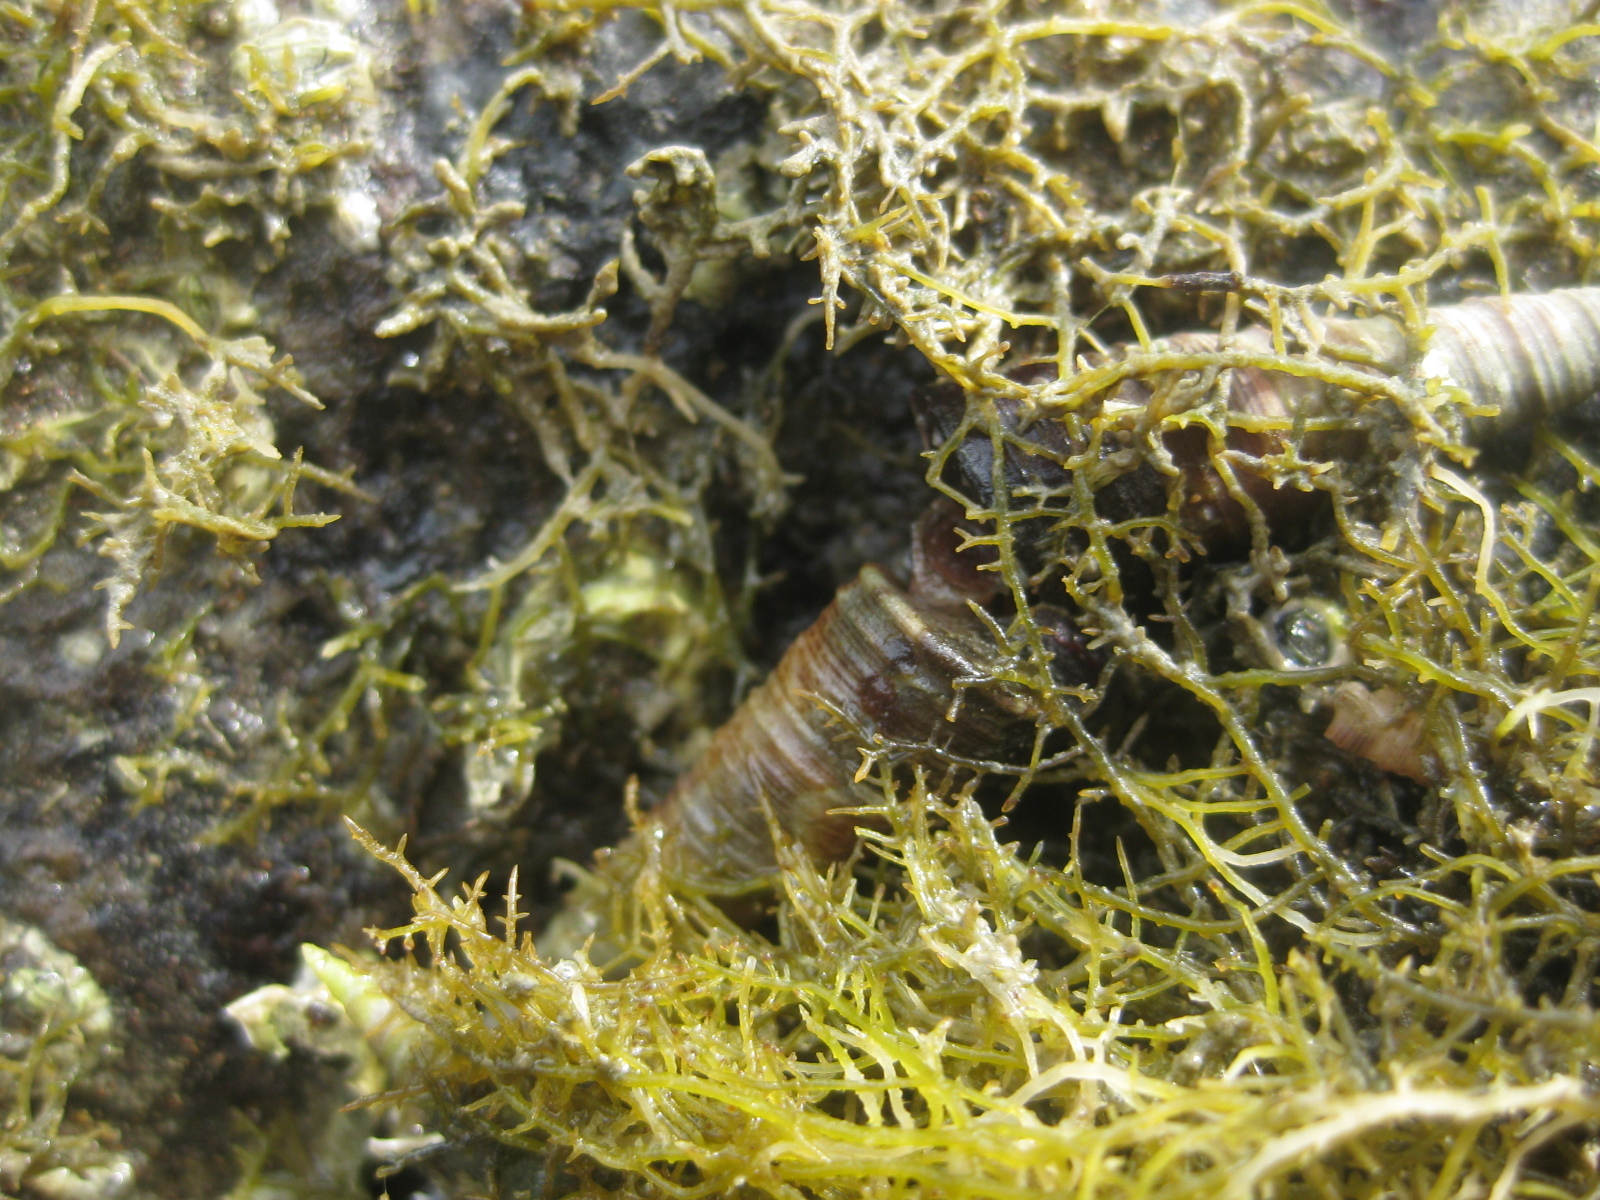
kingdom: Animalia
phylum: Mollusca
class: Gastropoda
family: Turritellidae
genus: Maoricolpus
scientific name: Maoricolpus roseus
